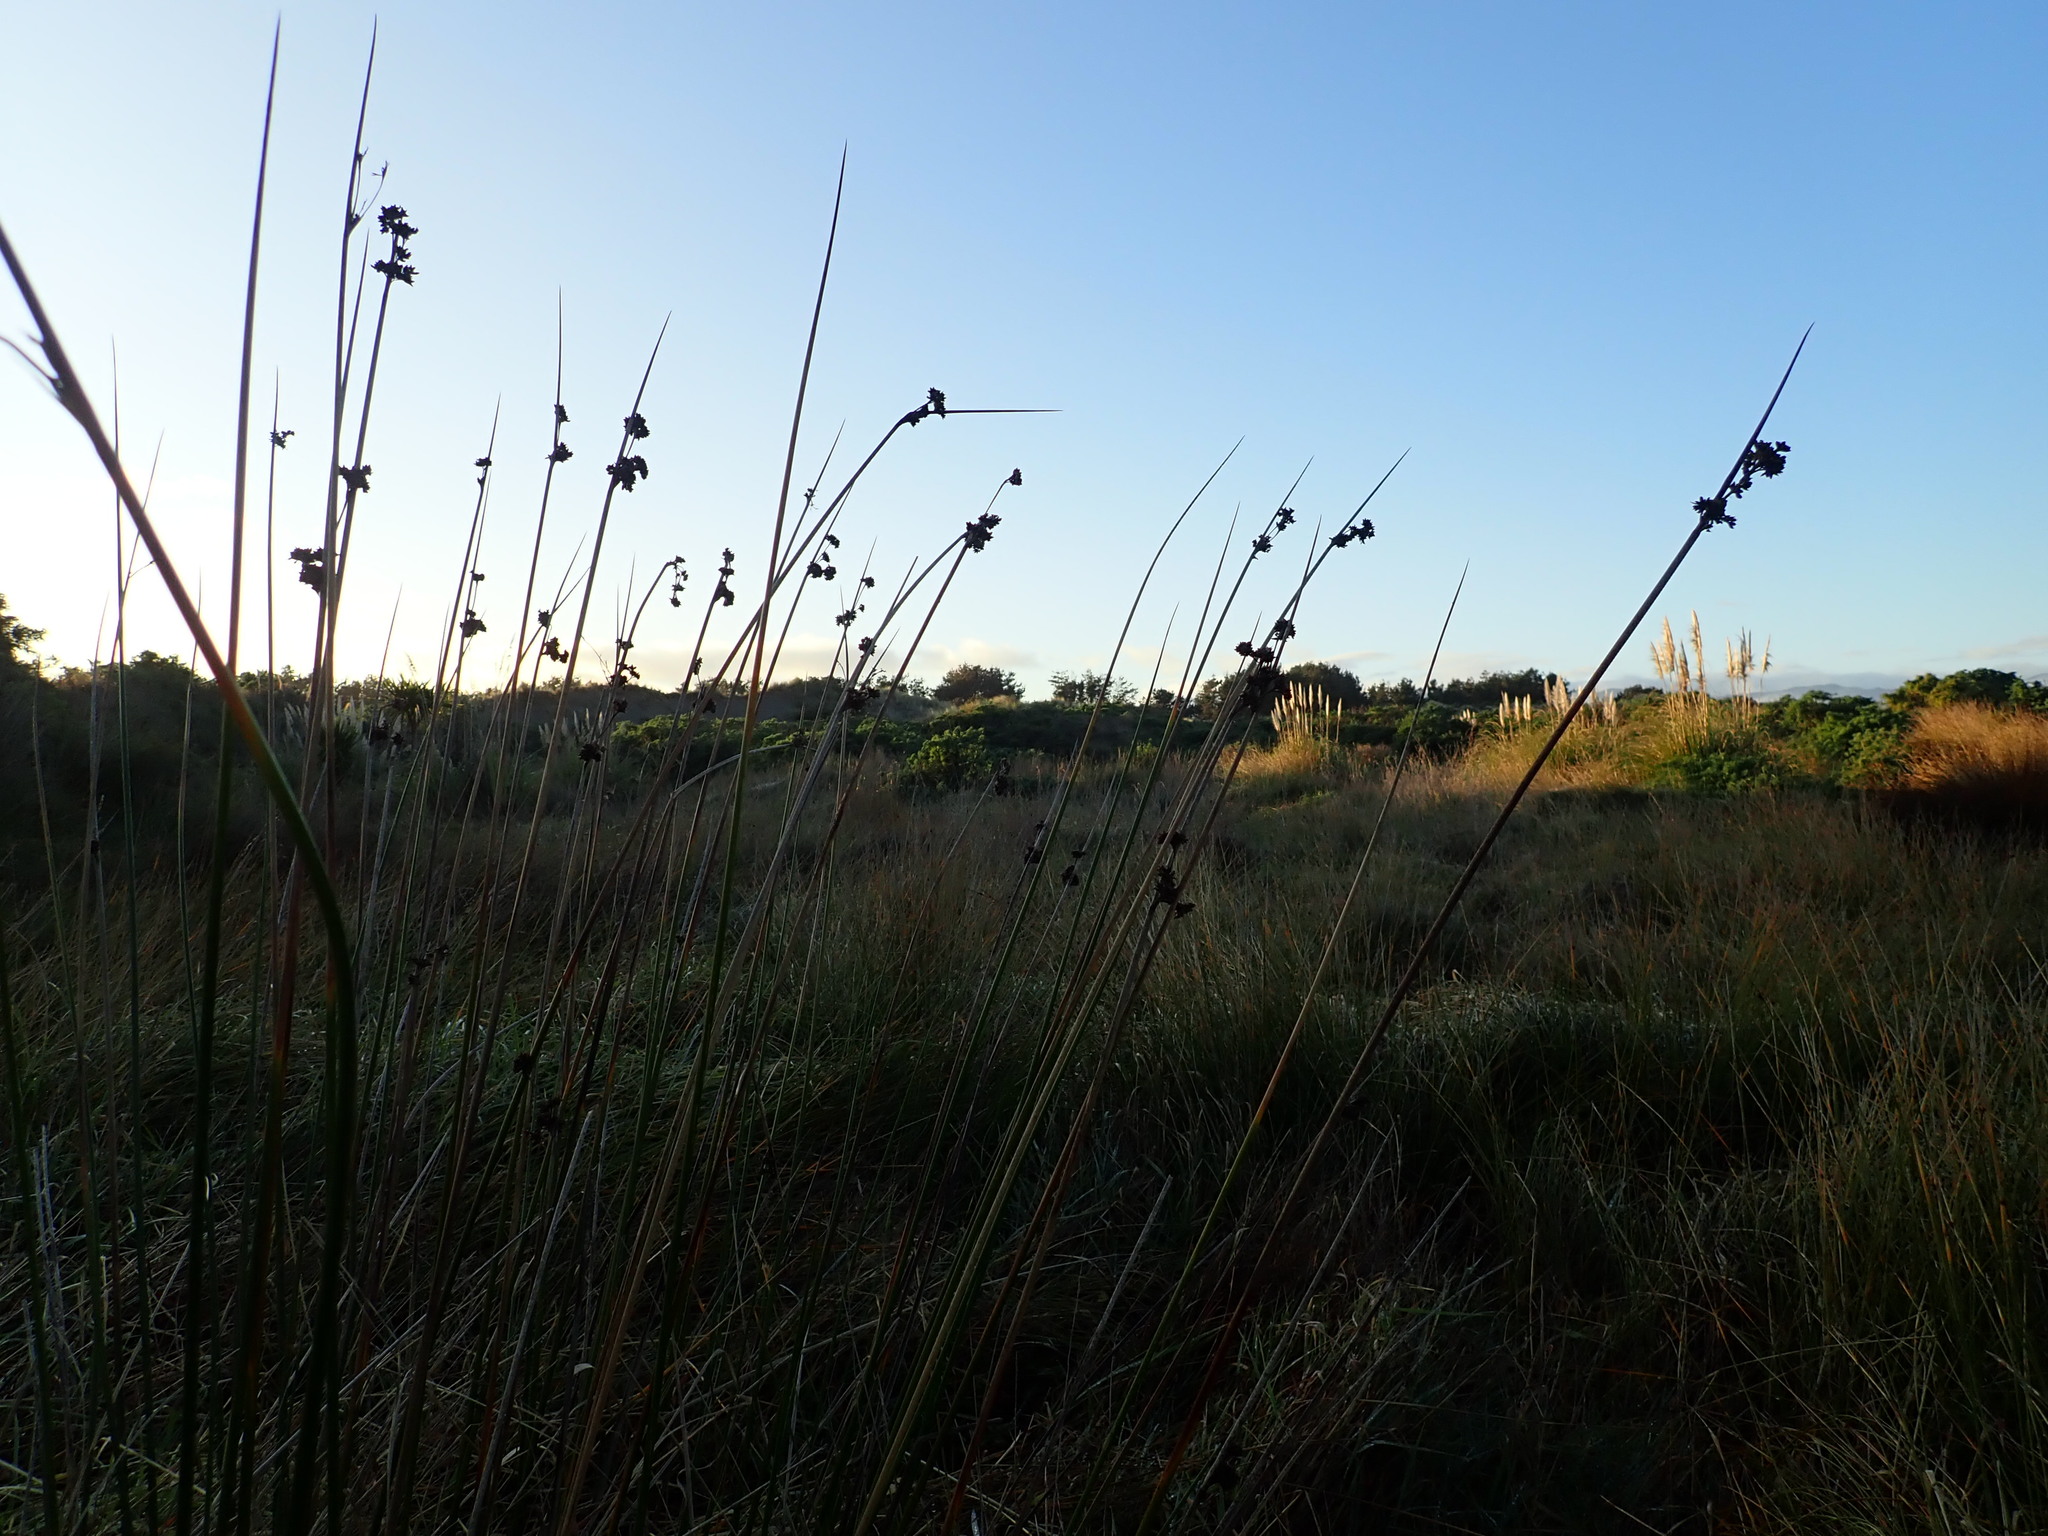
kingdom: Plantae
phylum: Tracheophyta
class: Liliopsida
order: Poales
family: Juncaceae
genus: Juncus
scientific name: Juncus edgariae
